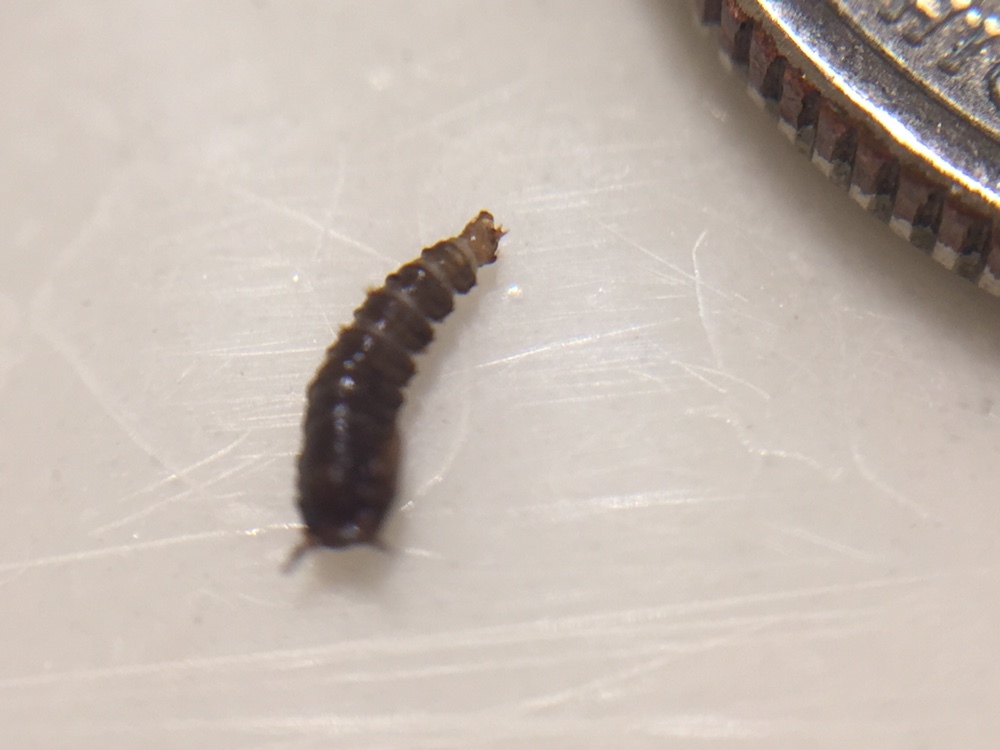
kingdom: Animalia
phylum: Arthropoda
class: Insecta
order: Diptera
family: Psychodidae
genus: Clogmia
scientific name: Clogmia albipunctatus
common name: White-spotted moth fly
